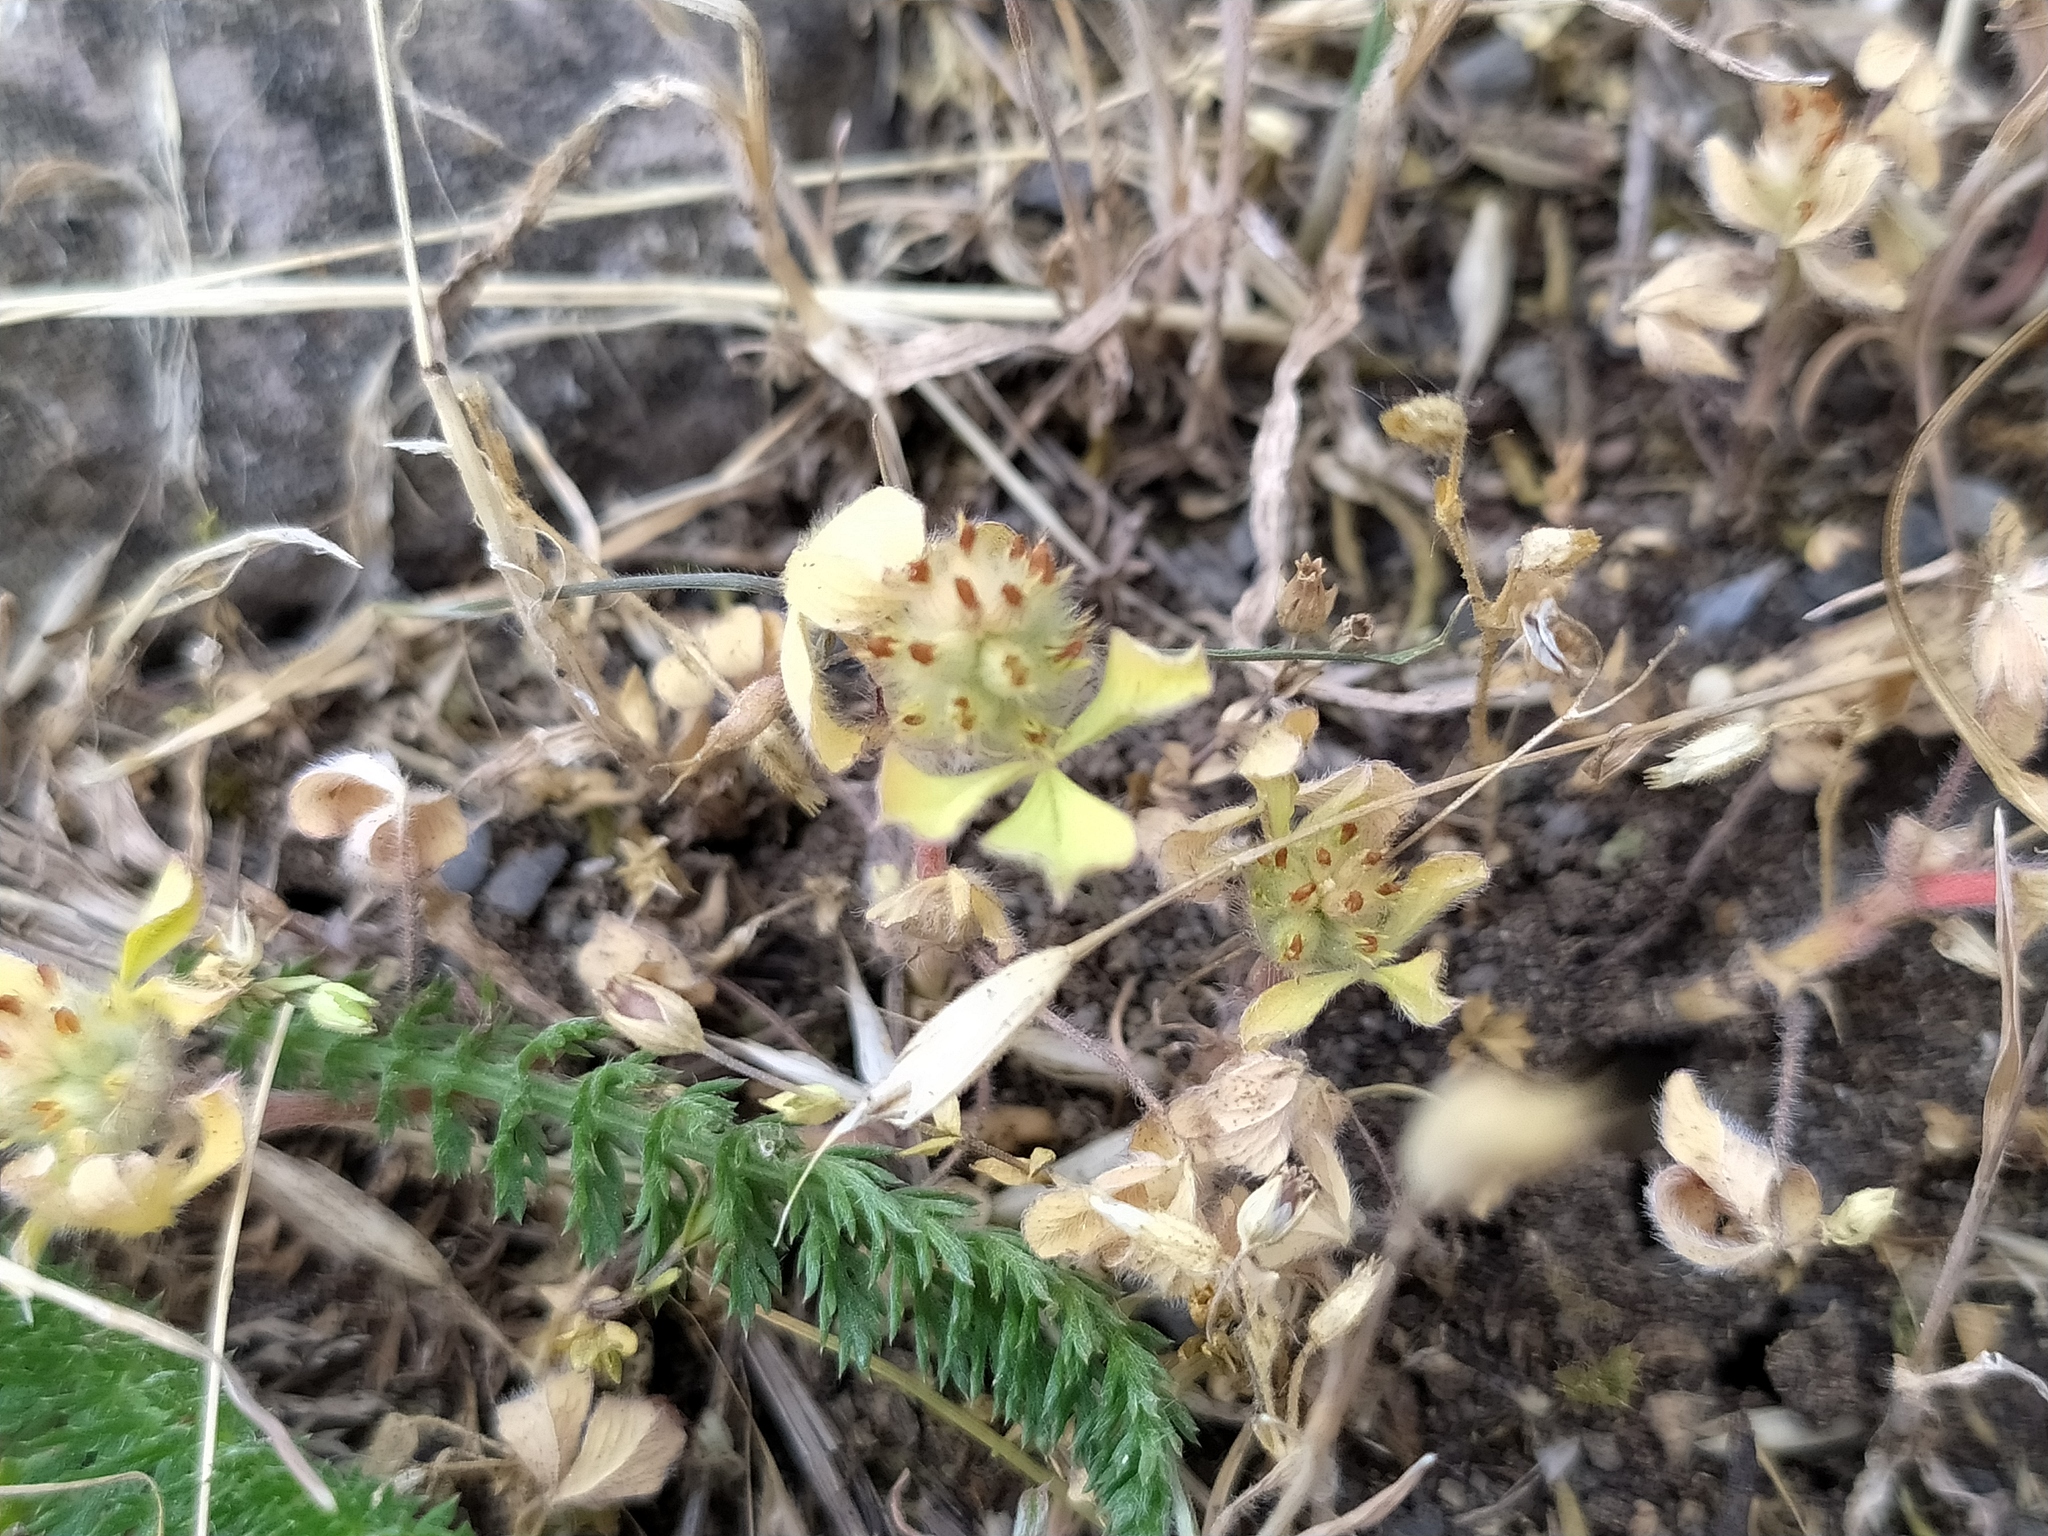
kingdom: Plantae
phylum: Tracheophyta
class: Magnoliopsida
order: Fabales
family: Fabaceae
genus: Trifolium
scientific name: Trifolium striatum
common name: Knotted clover
